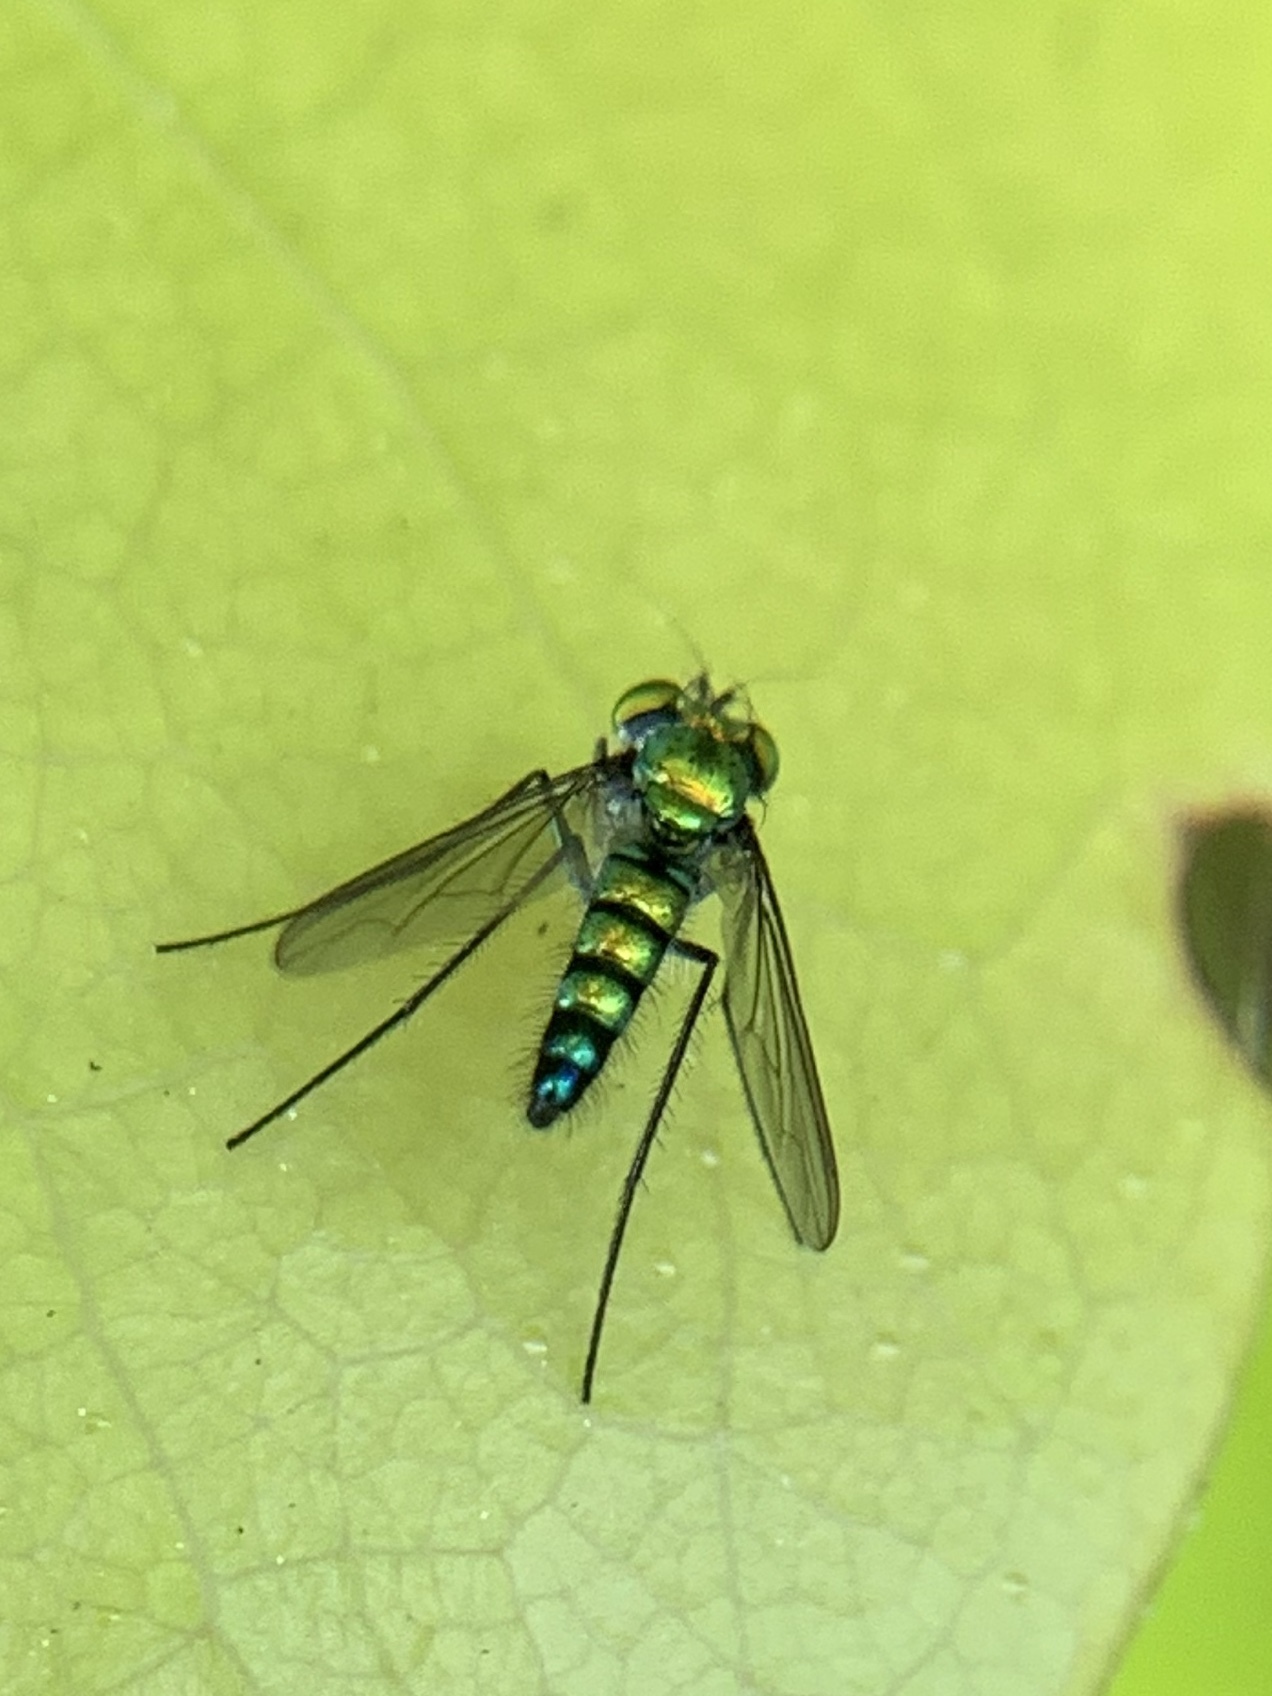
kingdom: Animalia
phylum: Arthropoda
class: Insecta
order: Diptera
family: Dolichopodidae
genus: Condylostylus
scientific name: Condylostylus longicornis
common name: Long-legged fly
